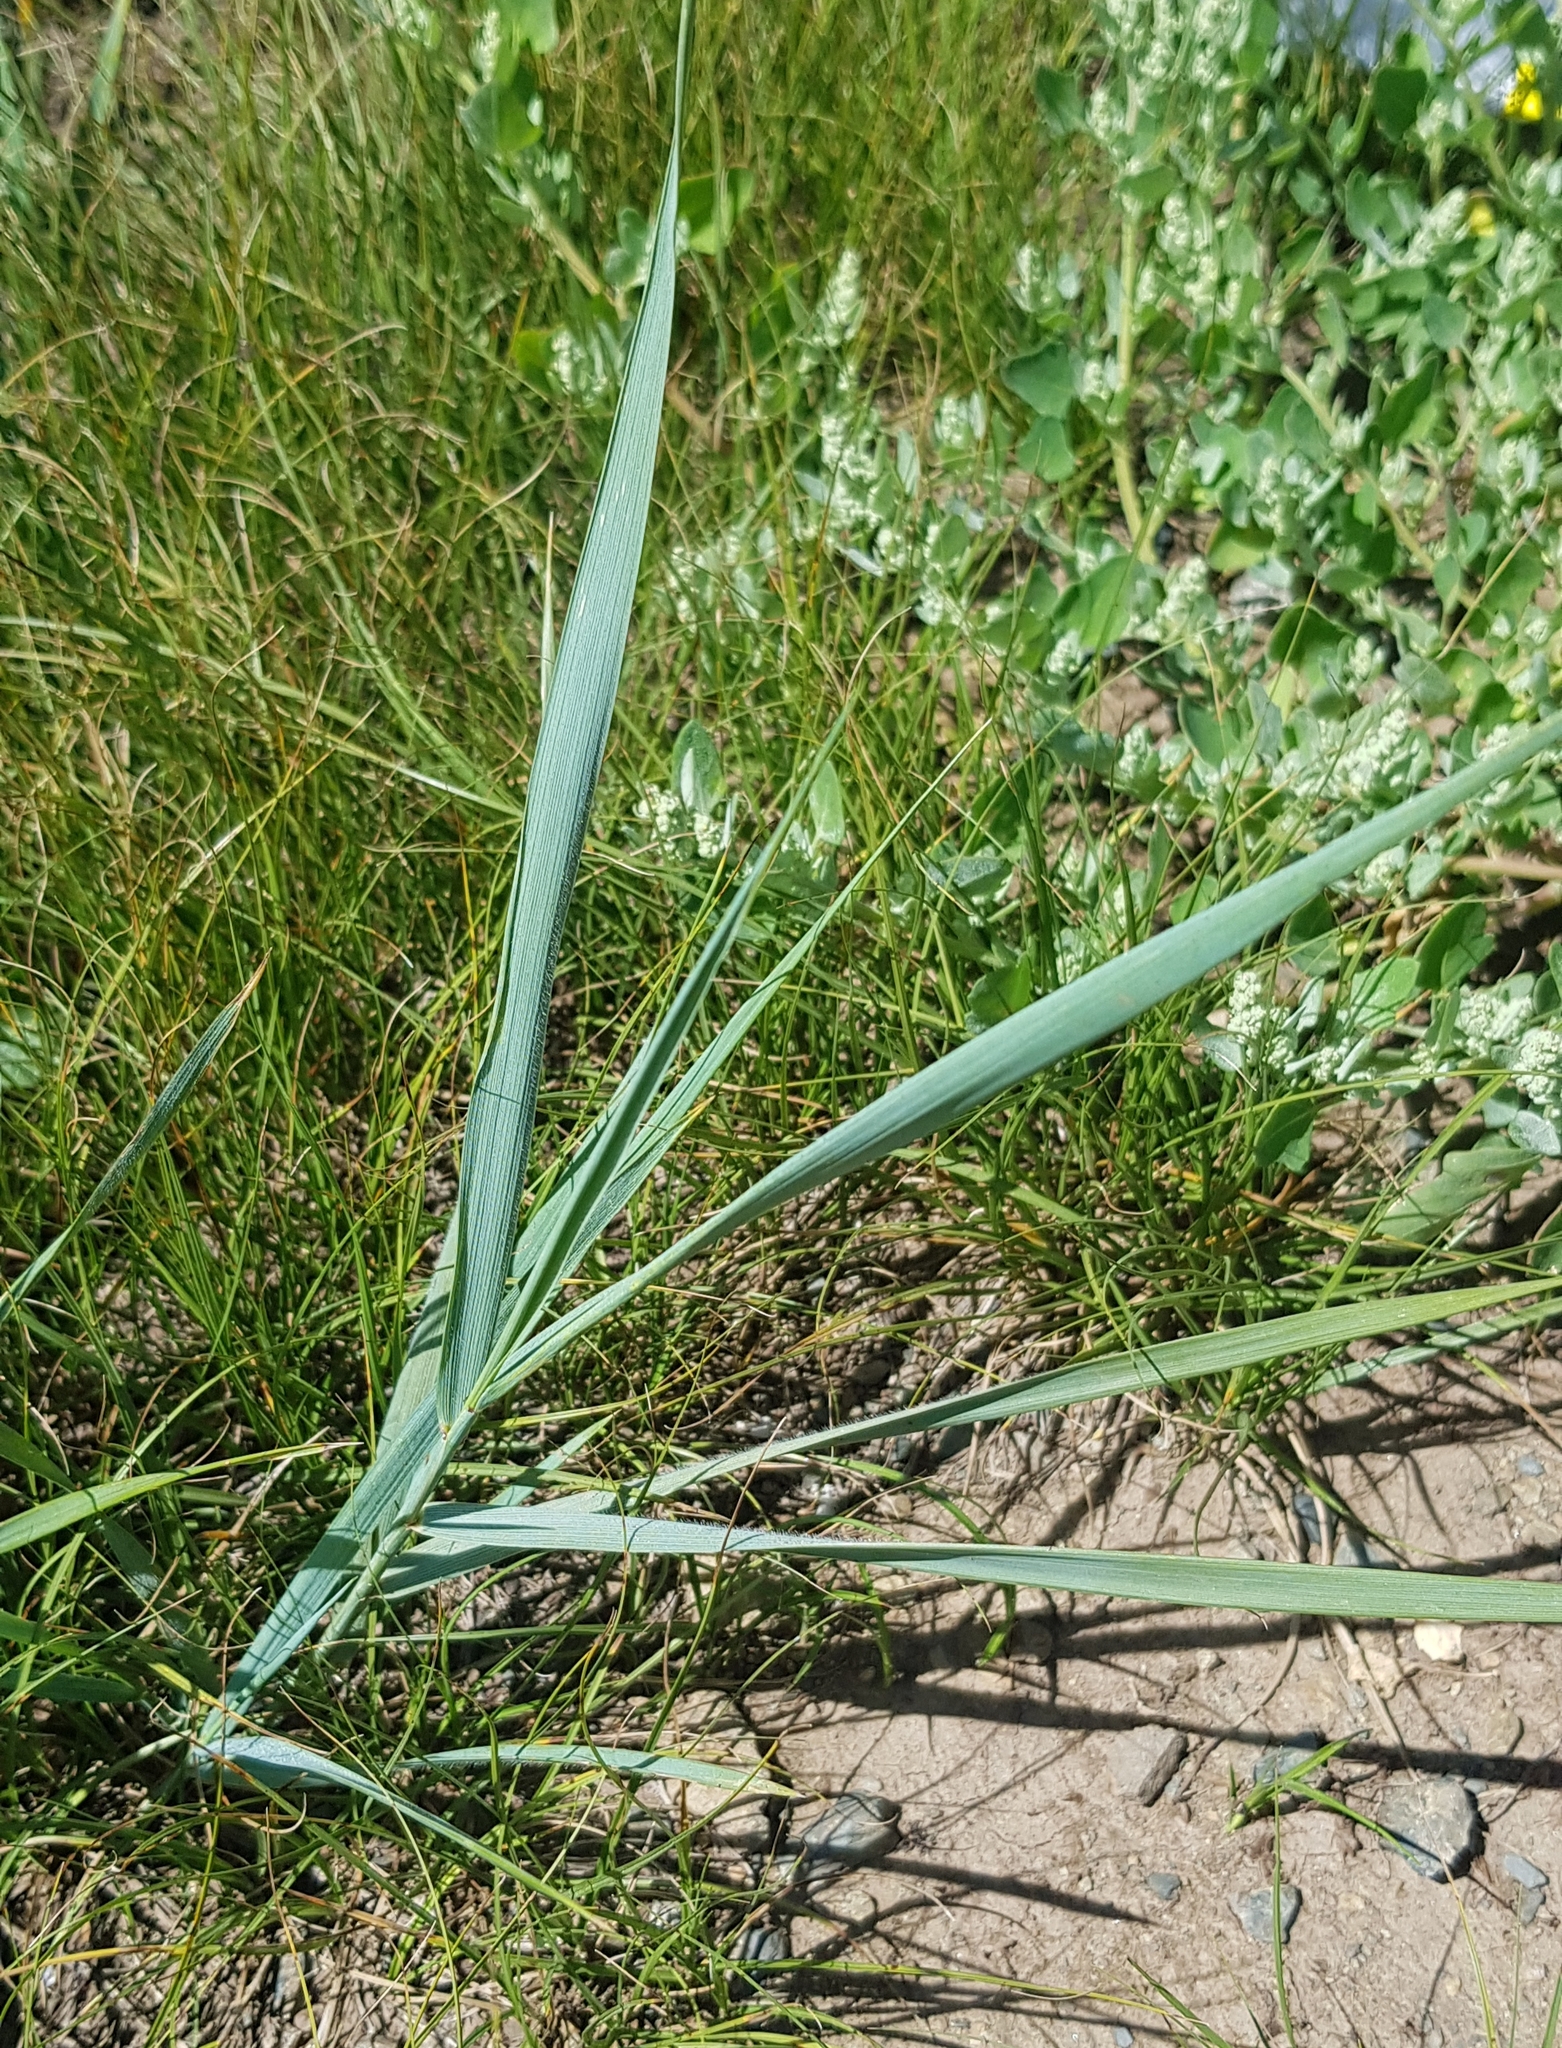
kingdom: Plantae
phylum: Tracheophyta
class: Liliopsida
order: Poales
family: Poaceae
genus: Leymus
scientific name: Leymus chinensis
